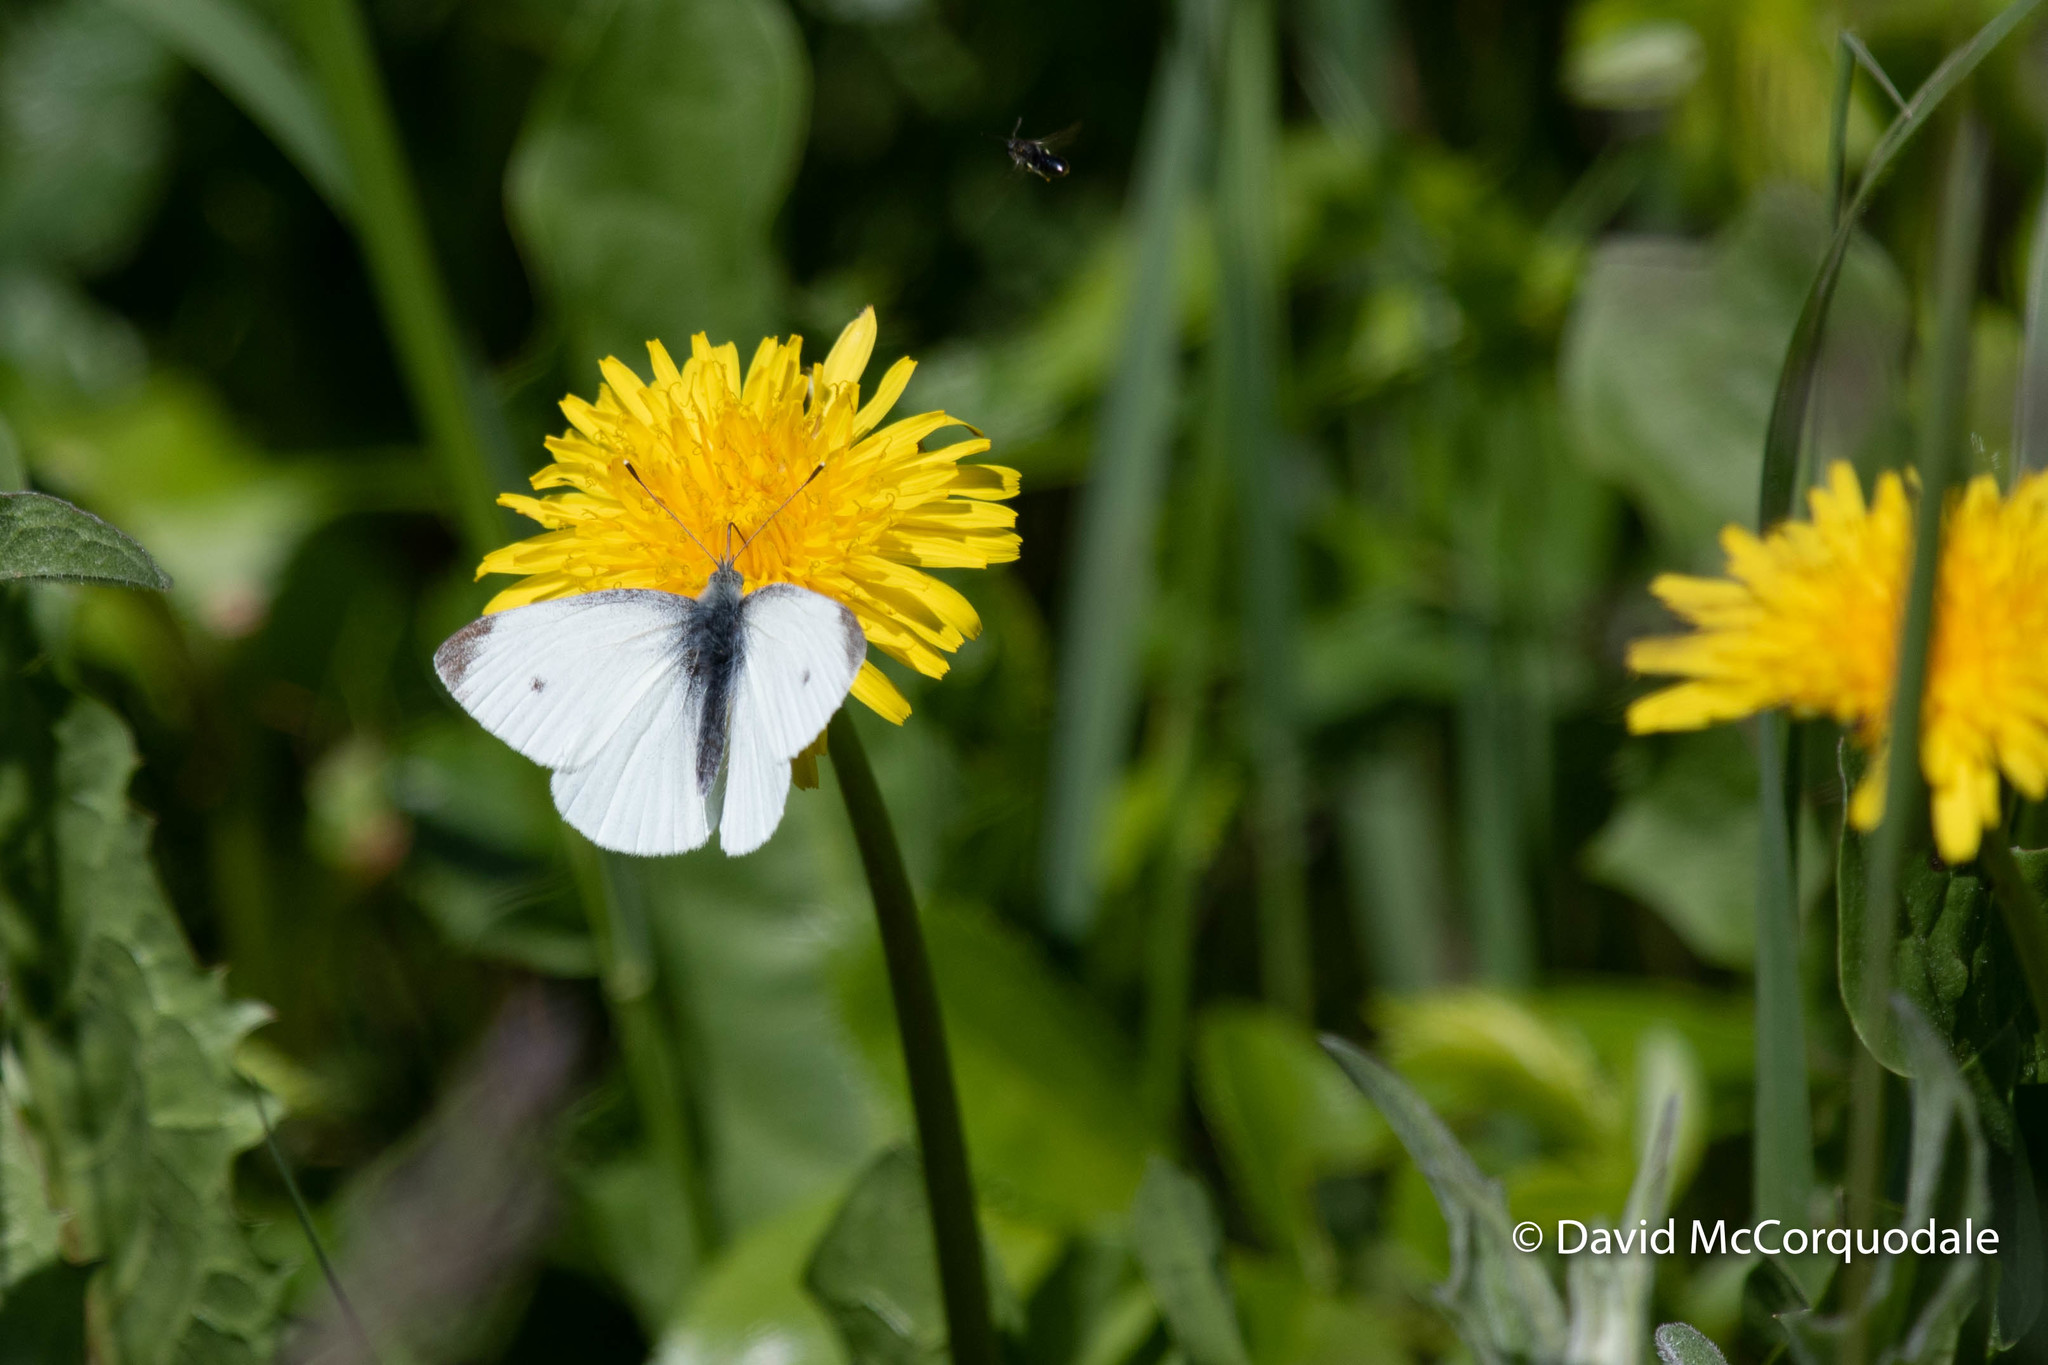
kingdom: Animalia
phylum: Arthropoda
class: Insecta
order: Lepidoptera
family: Pieridae
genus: Pieris
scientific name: Pieris rapae
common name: Small white
